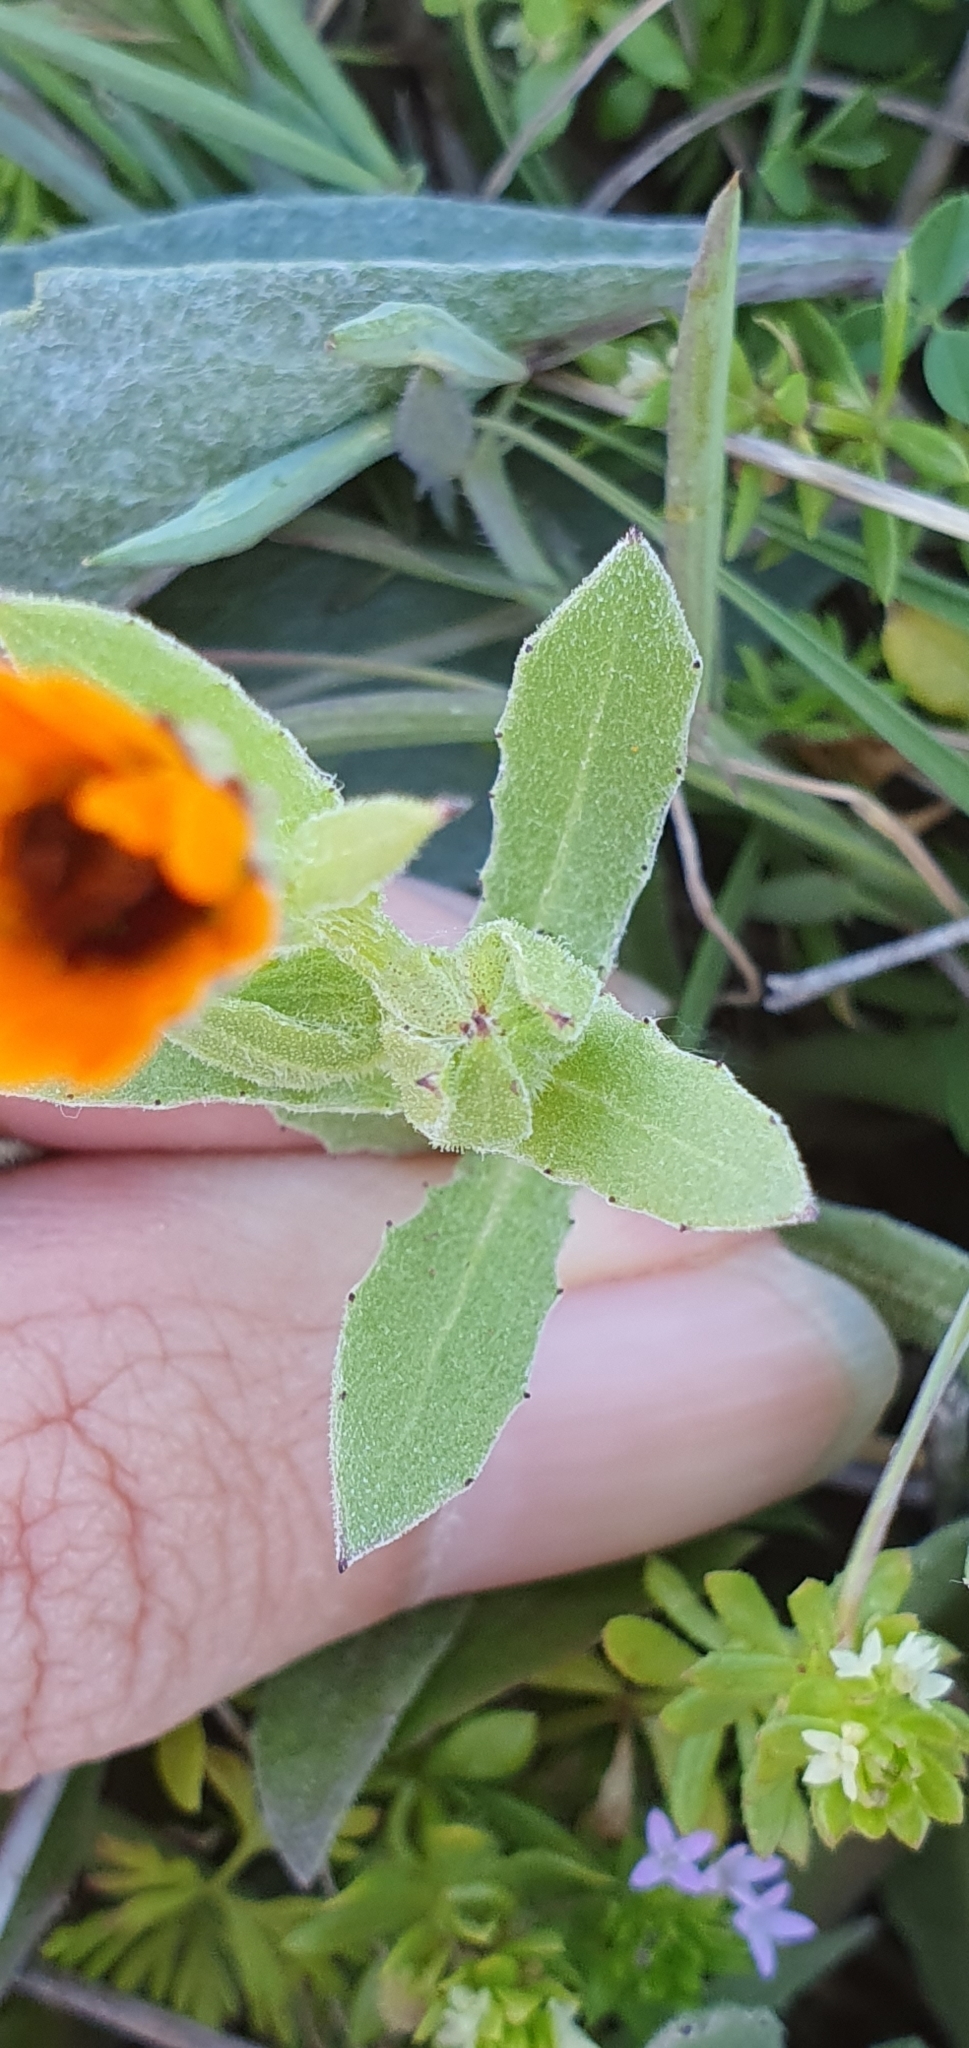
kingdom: Plantae
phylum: Tracheophyta
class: Magnoliopsida
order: Asterales
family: Asteraceae
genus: Calendula
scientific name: Calendula arvensis
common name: Field marigold
